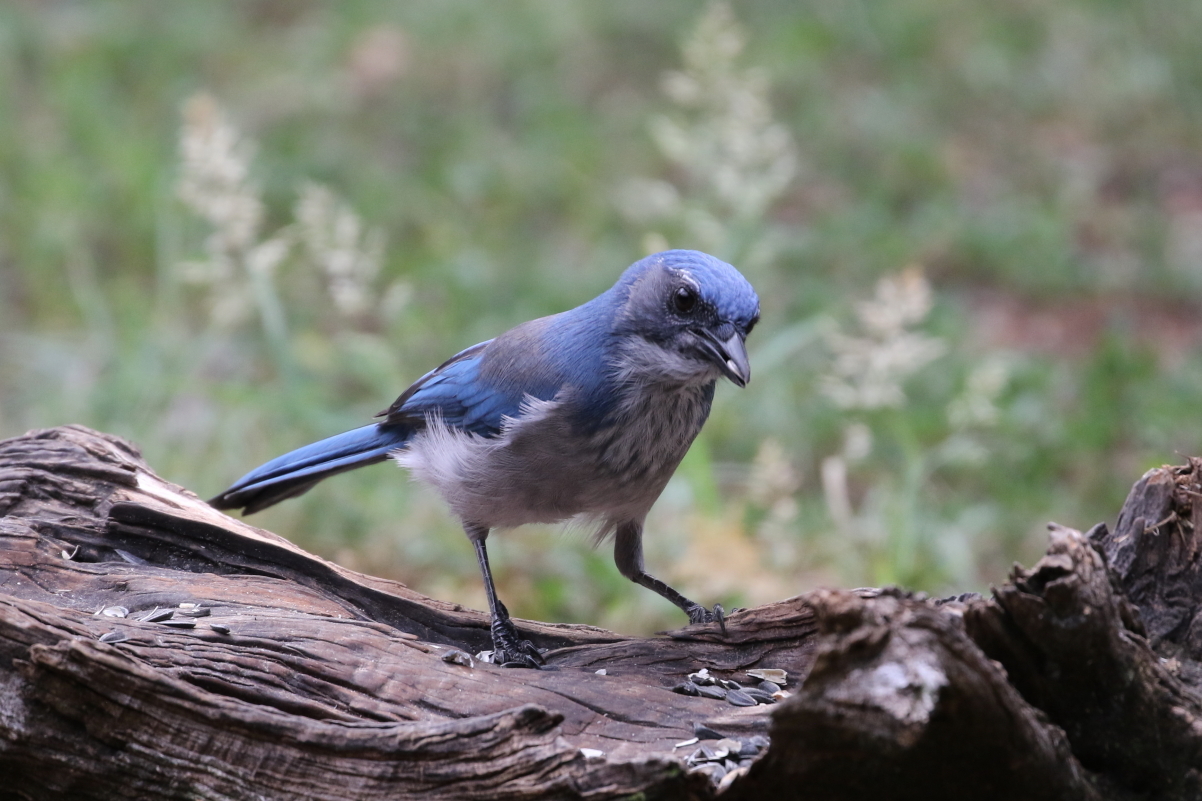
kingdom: Animalia
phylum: Chordata
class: Aves
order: Passeriformes
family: Corvidae
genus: Aphelocoma
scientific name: Aphelocoma woodhouseii
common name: Woodhouse's scrub-jay
